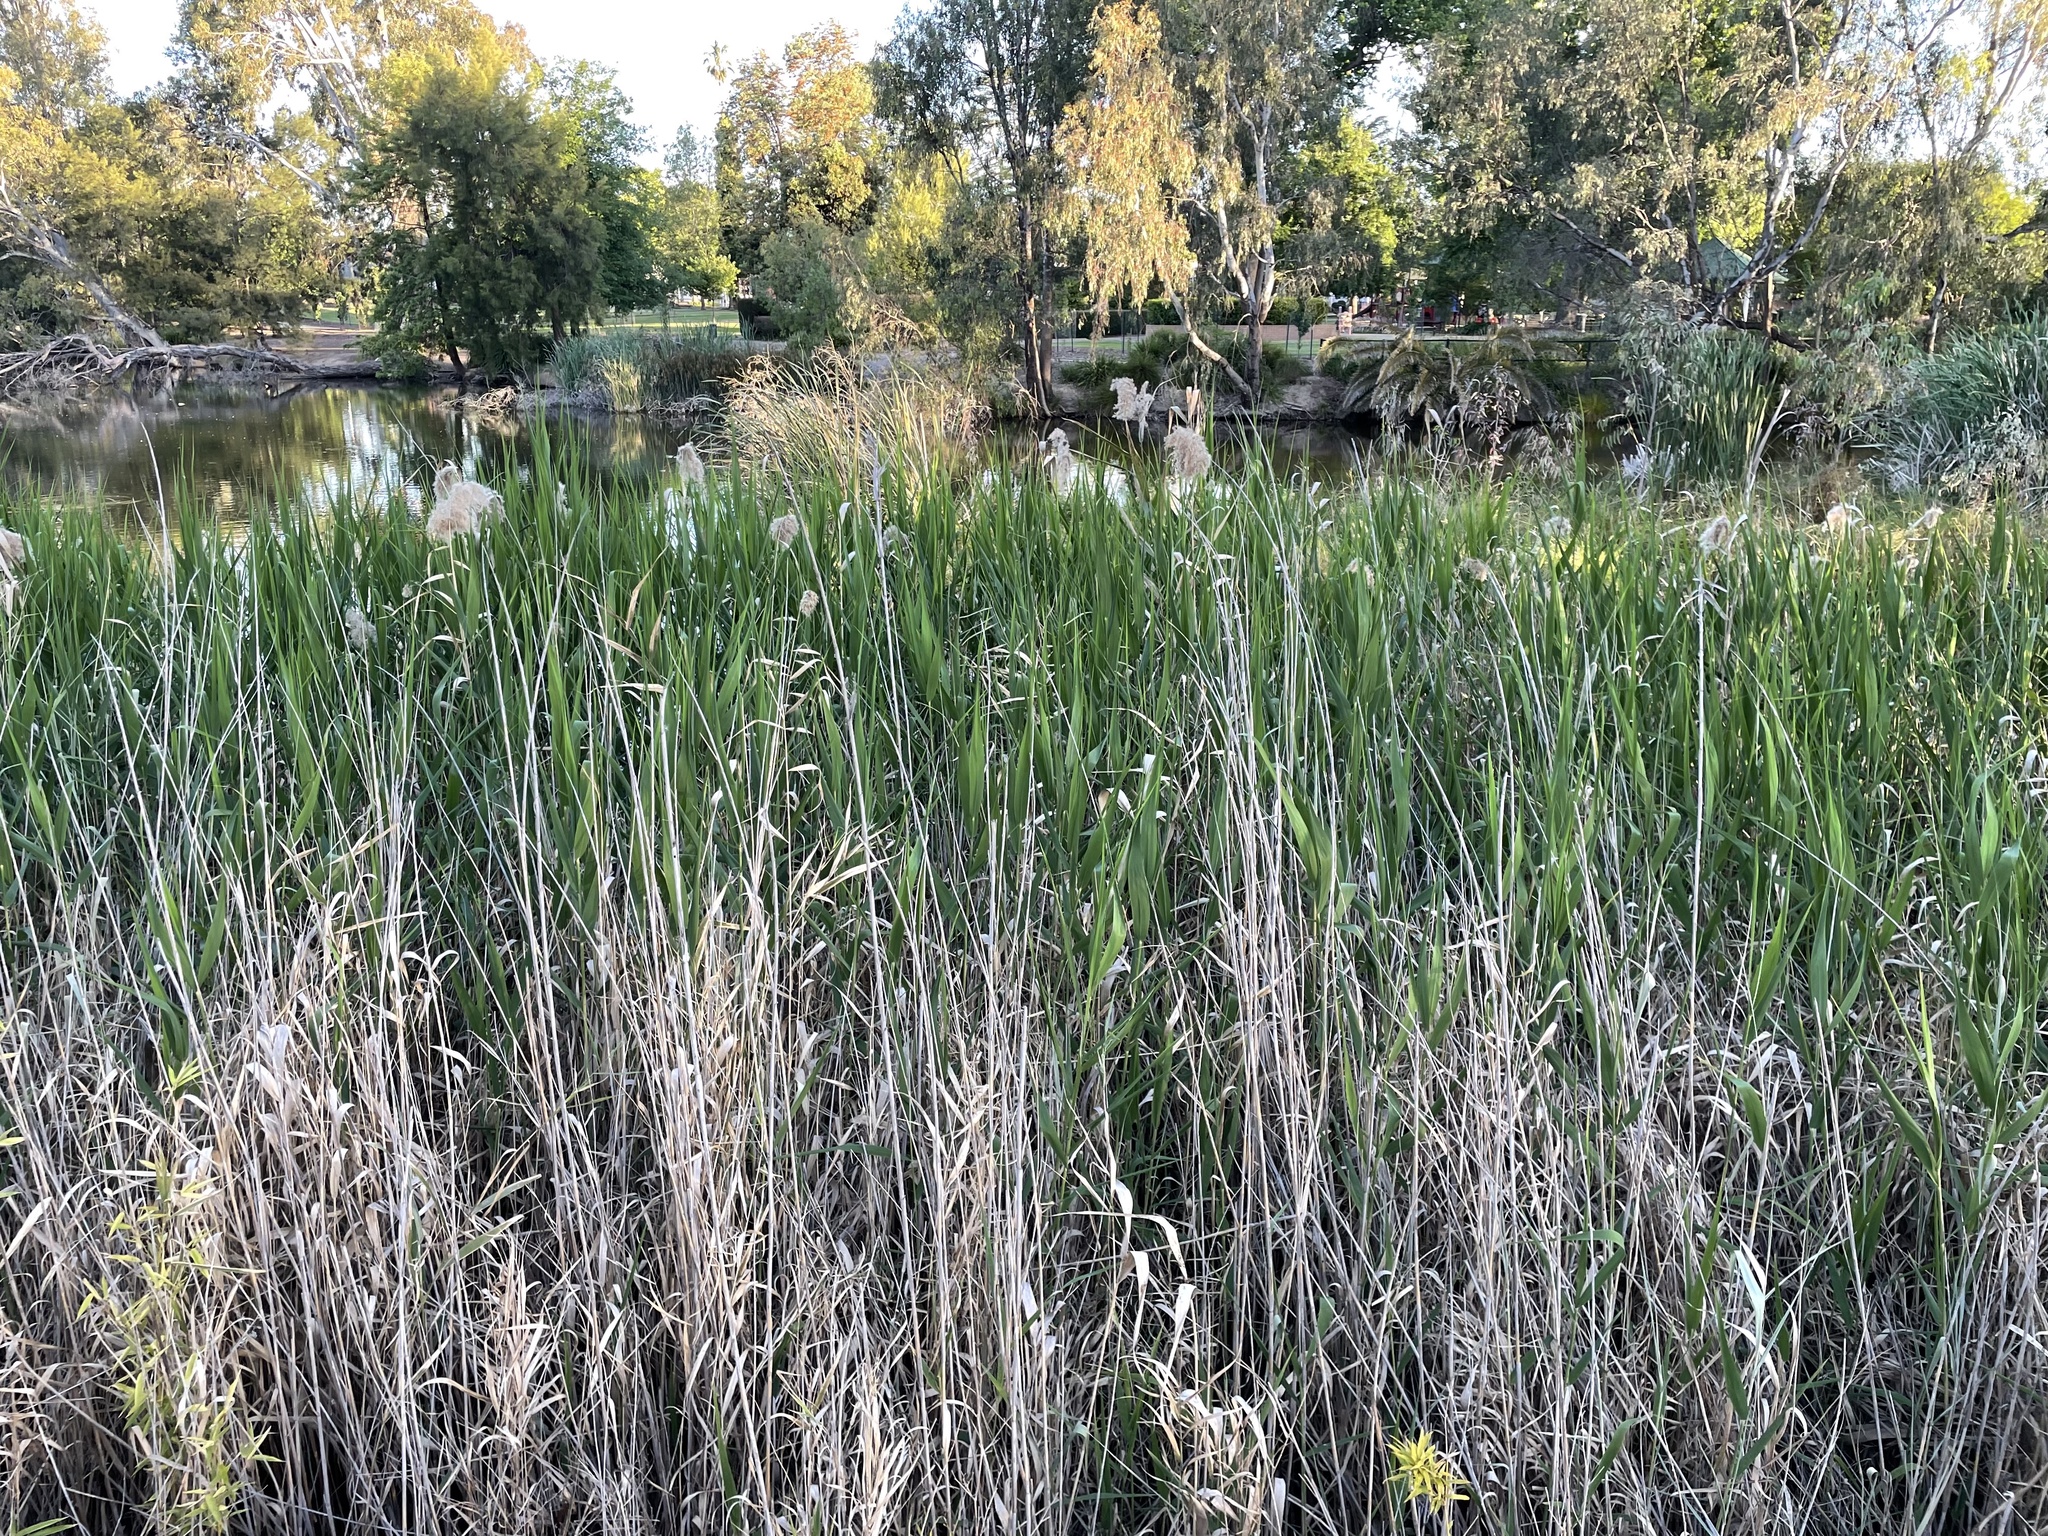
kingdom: Plantae
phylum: Tracheophyta
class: Liliopsida
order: Poales
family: Poaceae
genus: Phragmites
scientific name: Phragmites australis
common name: Common reed
